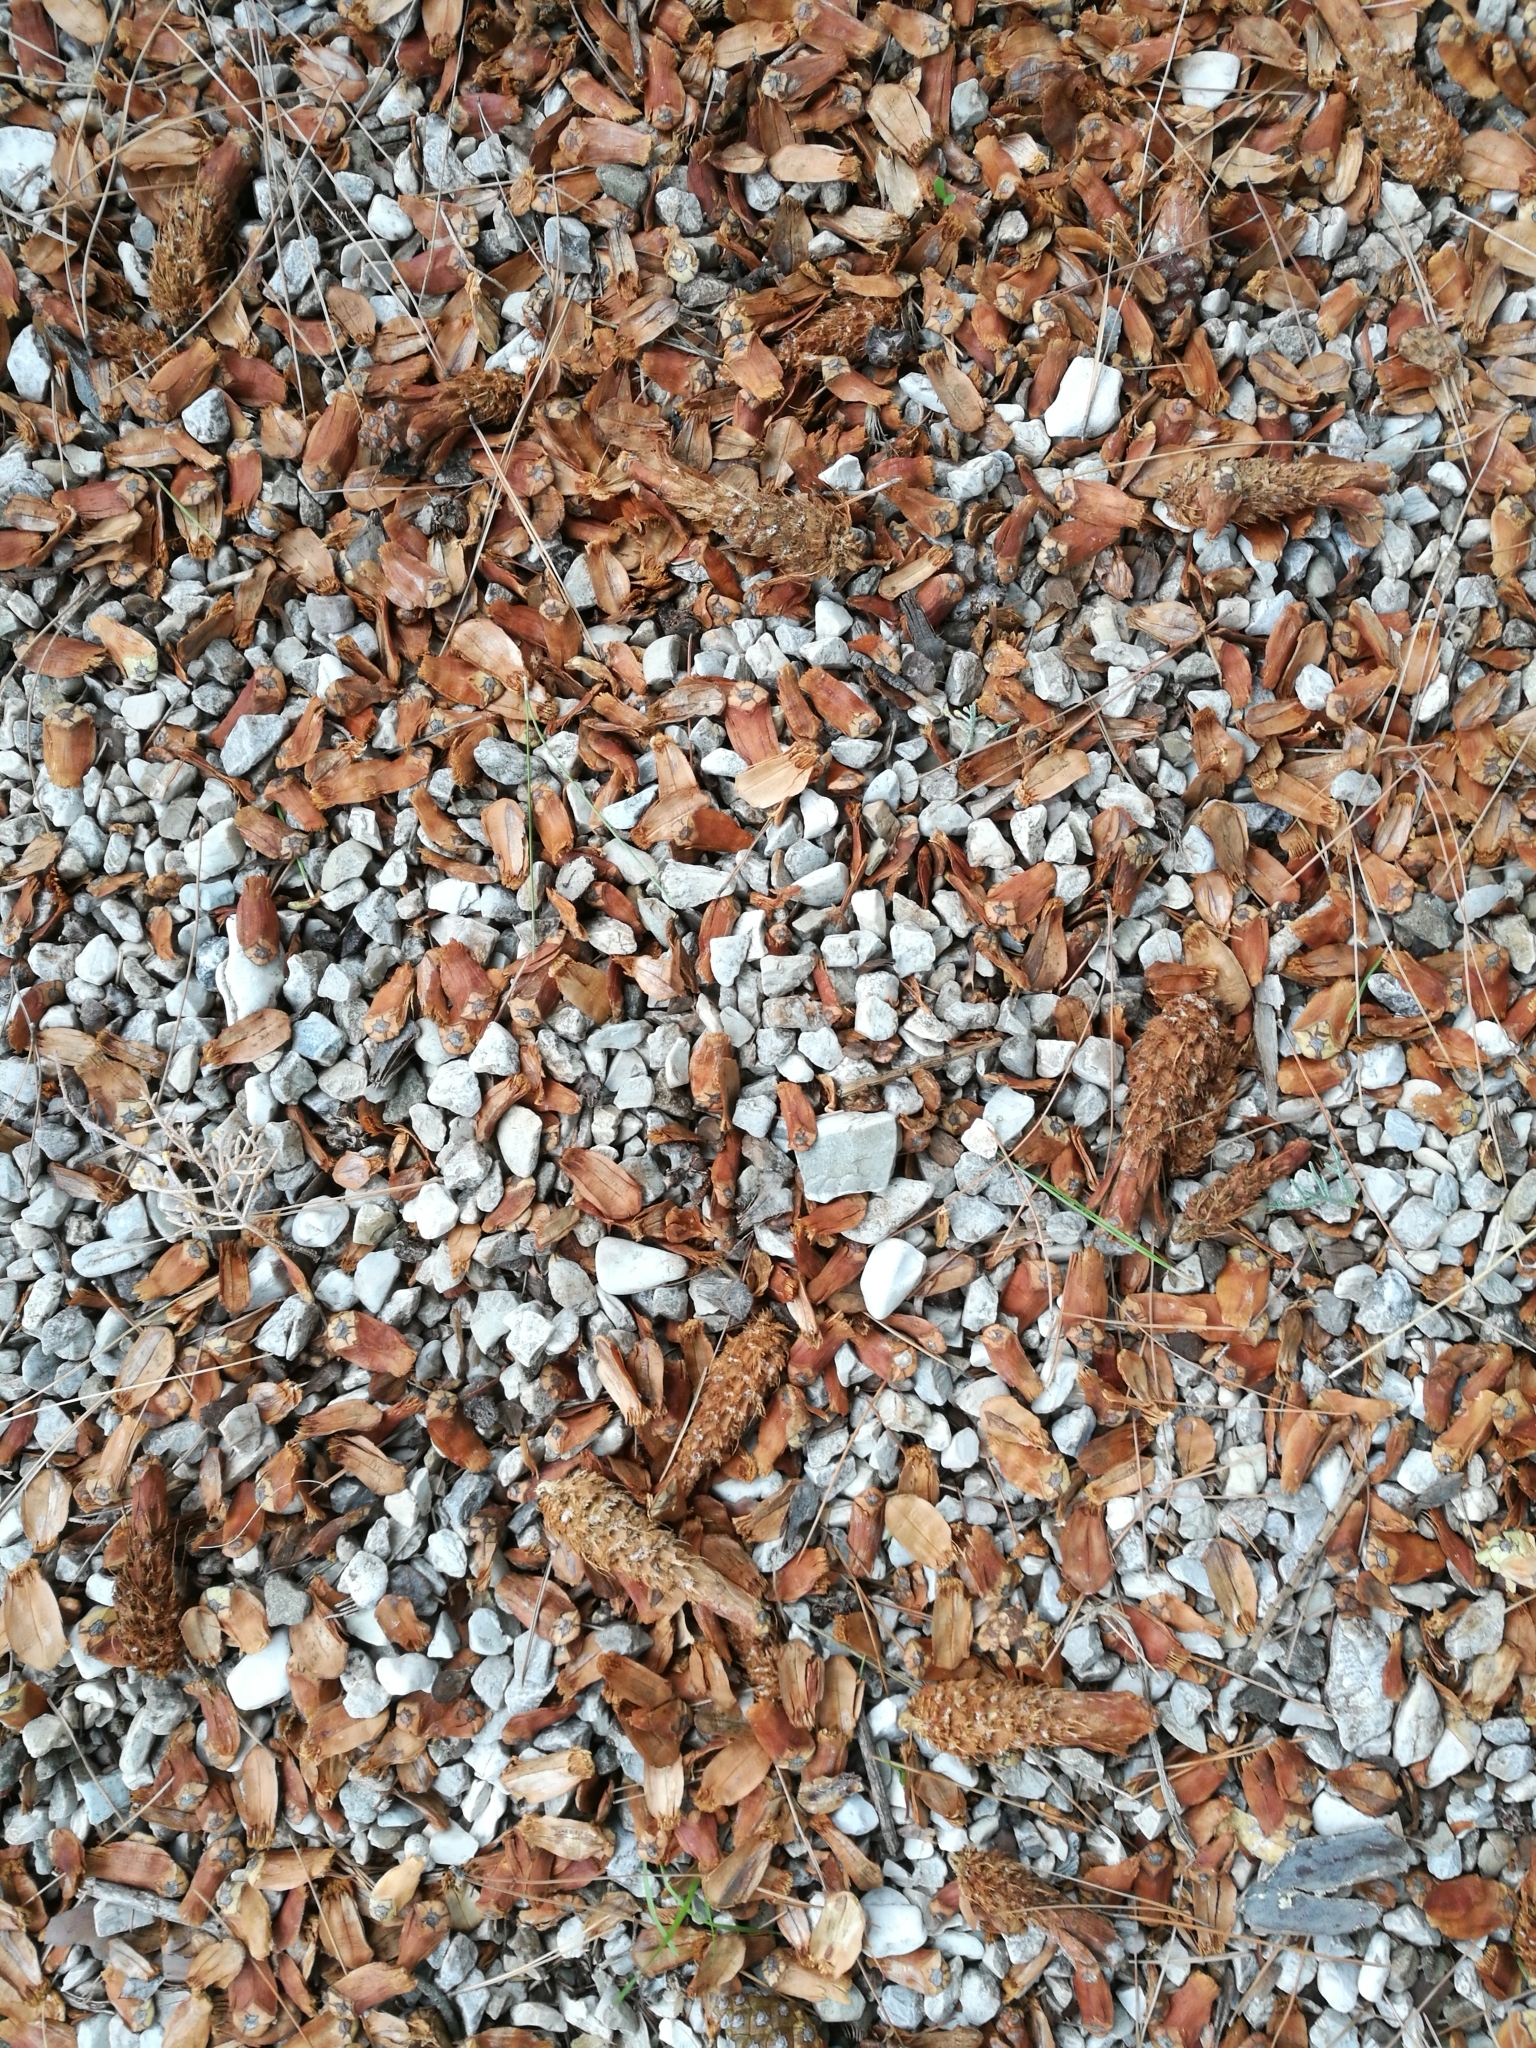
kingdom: Animalia
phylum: Chordata
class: Mammalia
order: Rodentia
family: Sciuridae
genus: Sciurus
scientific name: Sciurus vulgaris
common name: Eurasian red squirrel
